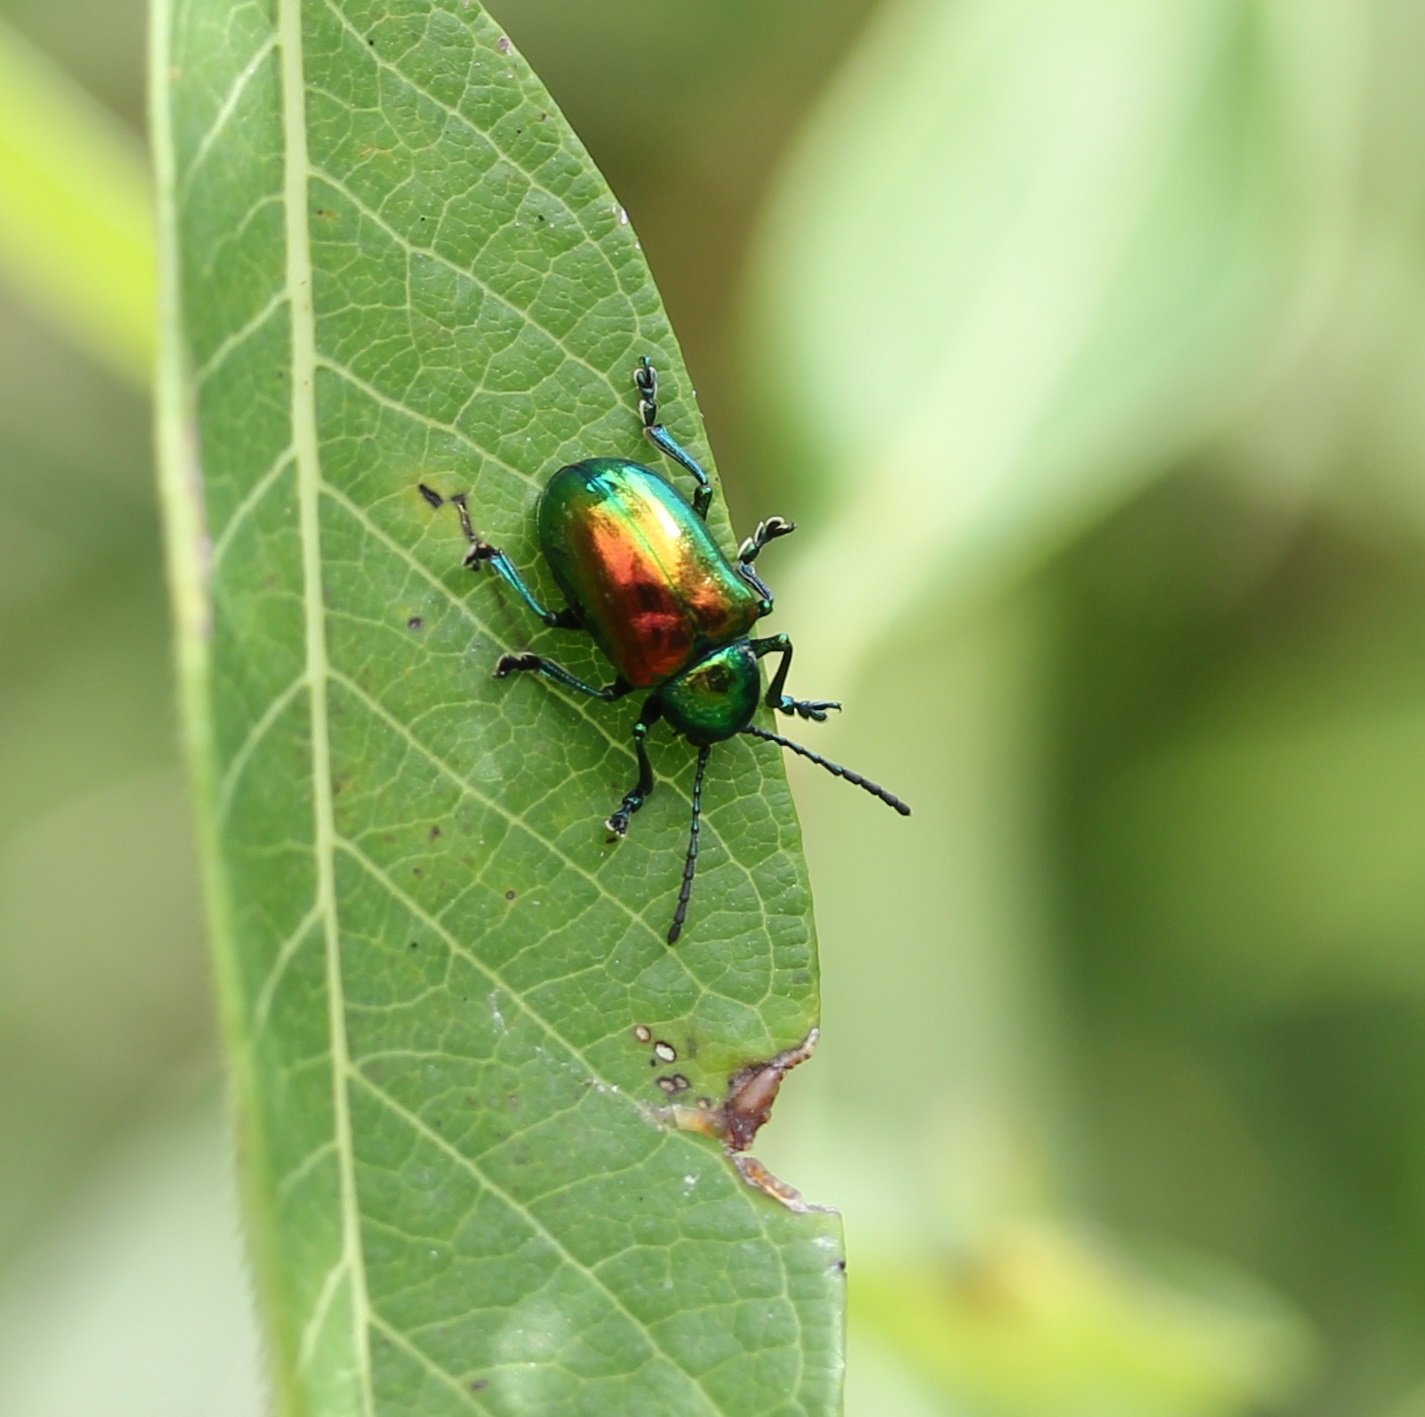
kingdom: Animalia
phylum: Arthropoda
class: Insecta
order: Coleoptera
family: Chrysomelidae
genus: Chrysochus
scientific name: Chrysochus auratus
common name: Dogbane leaf beetle
